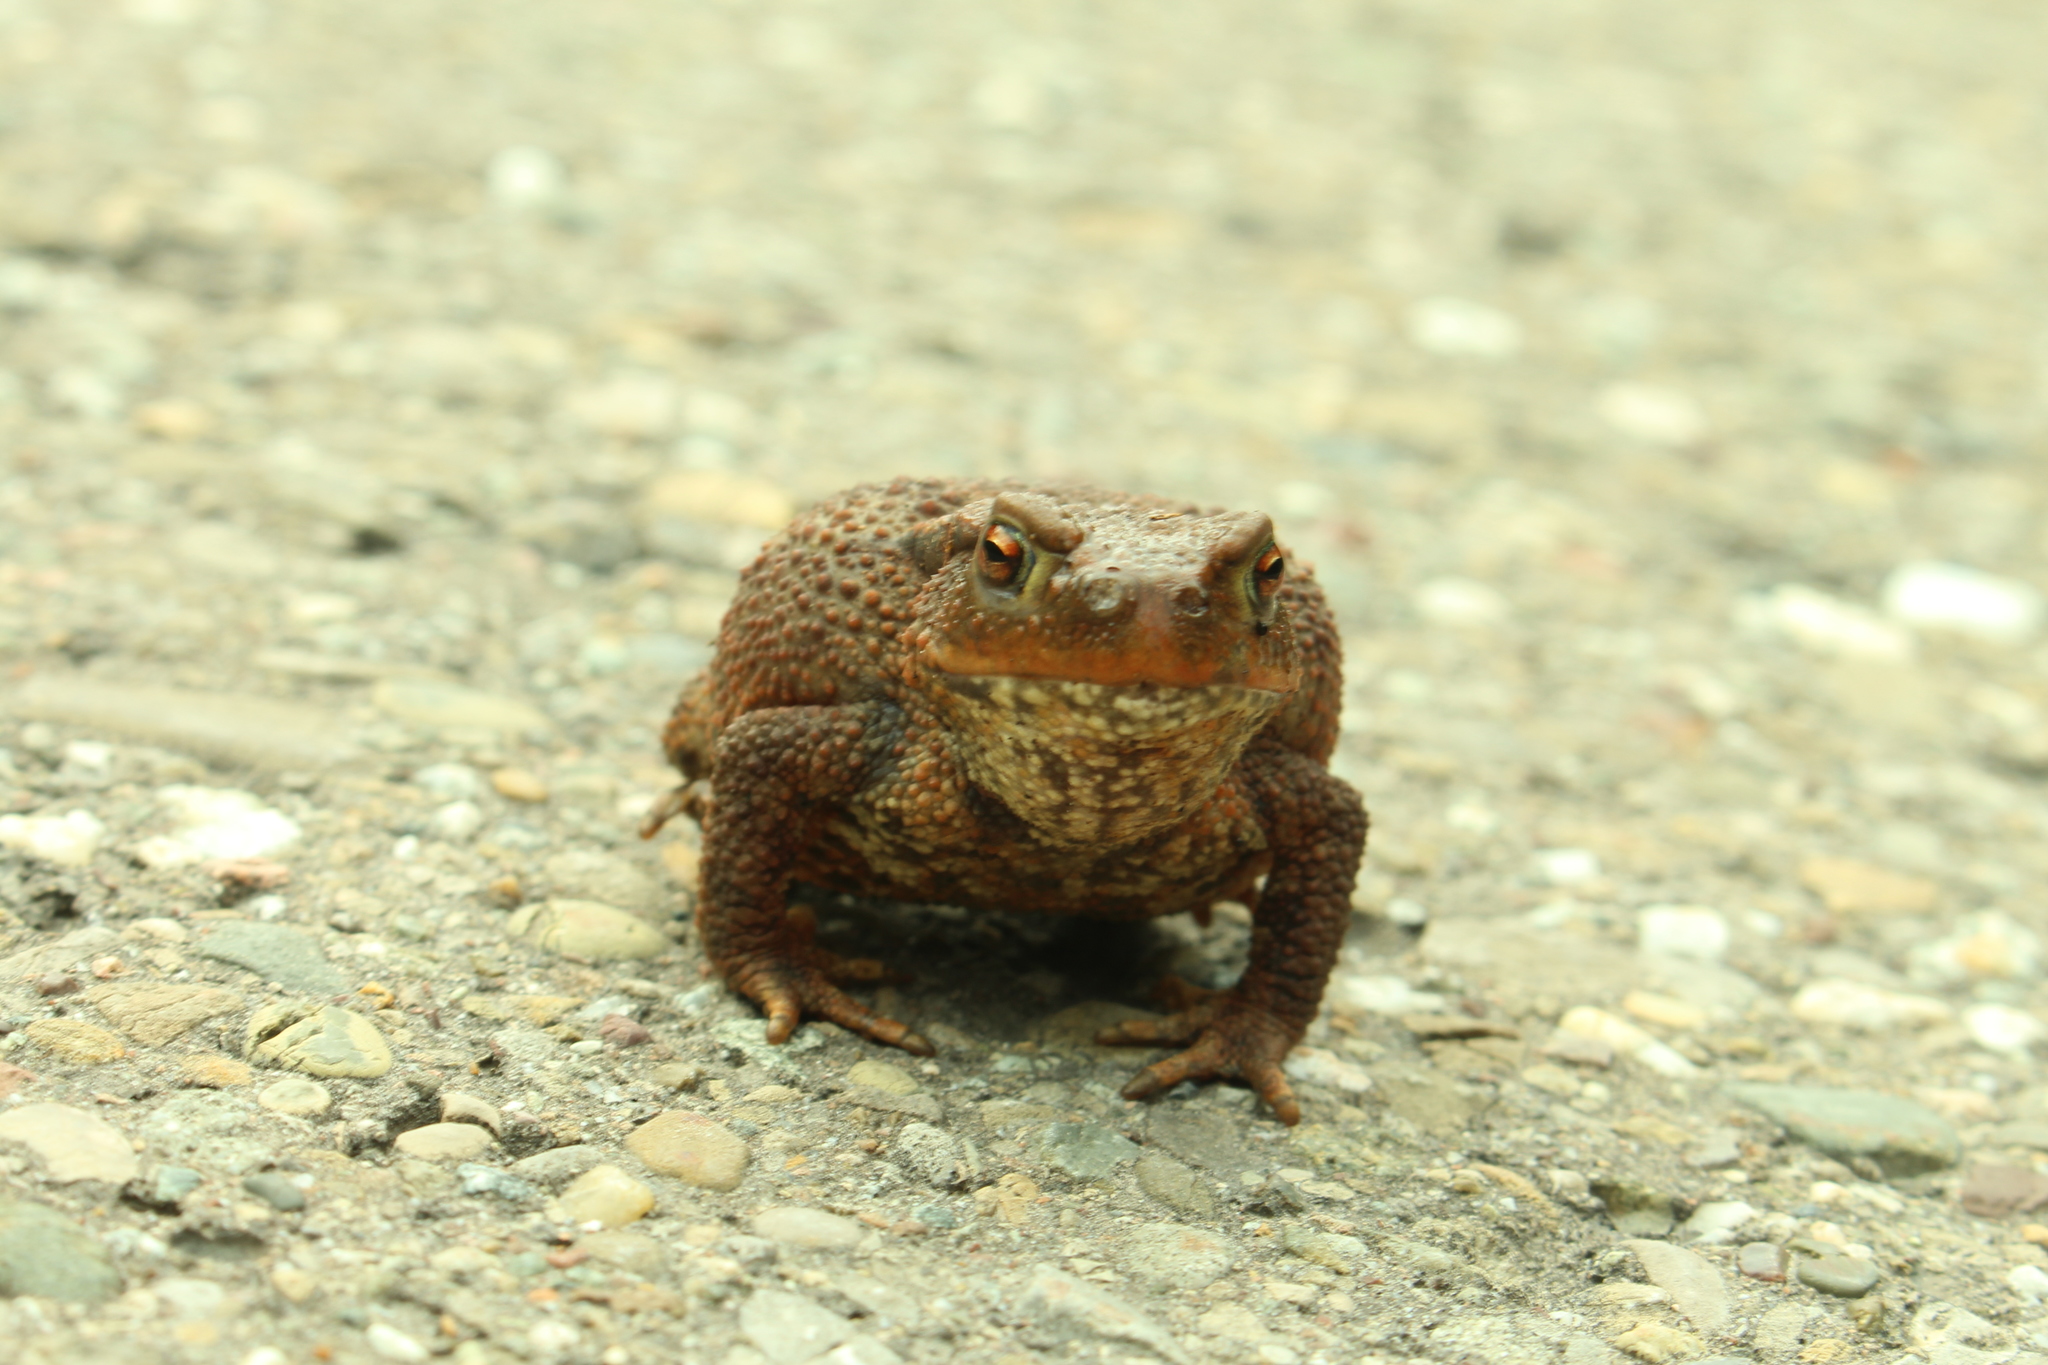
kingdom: Animalia
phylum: Chordata
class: Amphibia
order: Anura
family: Bufonidae
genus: Bufo
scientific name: Bufo bufo
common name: Common toad
